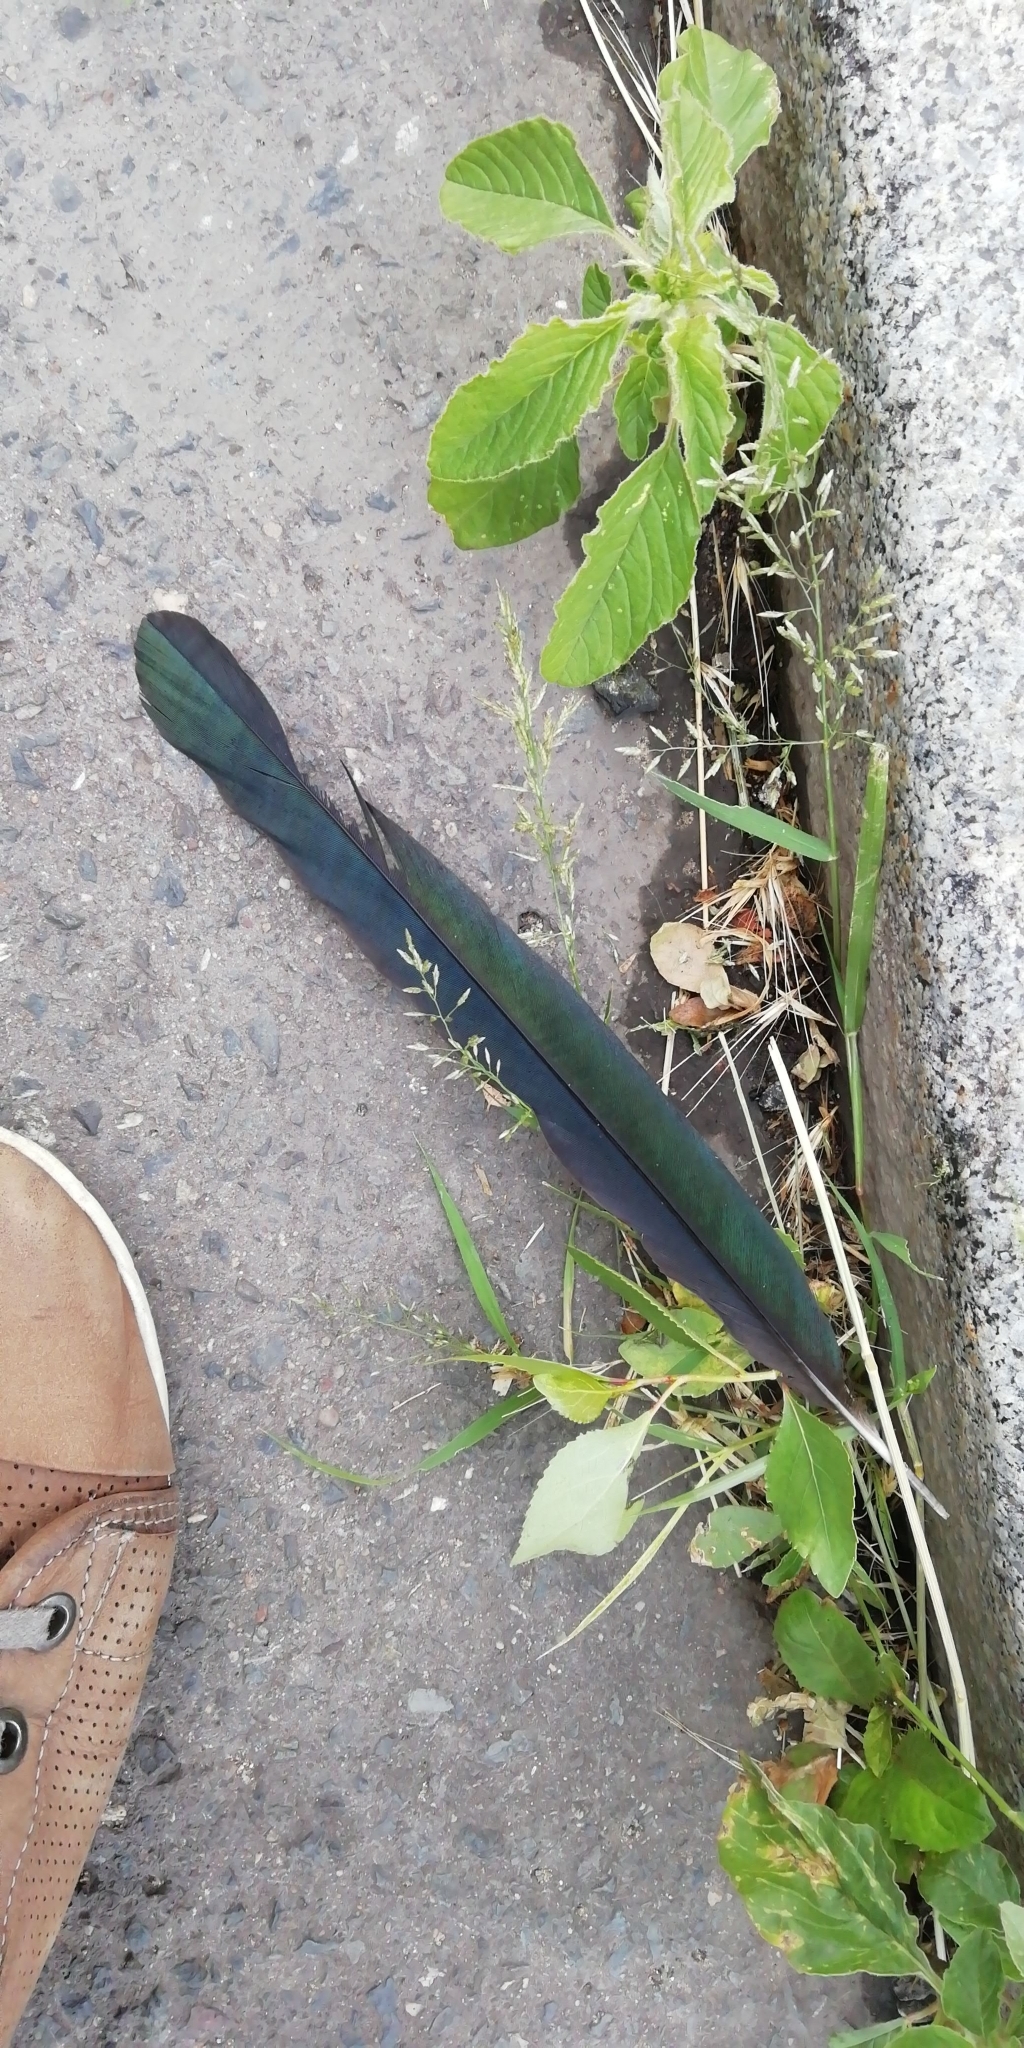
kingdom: Animalia
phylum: Chordata
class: Aves
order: Passeriformes
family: Corvidae
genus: Pica
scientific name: Pica pica
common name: Eurasian magpie
